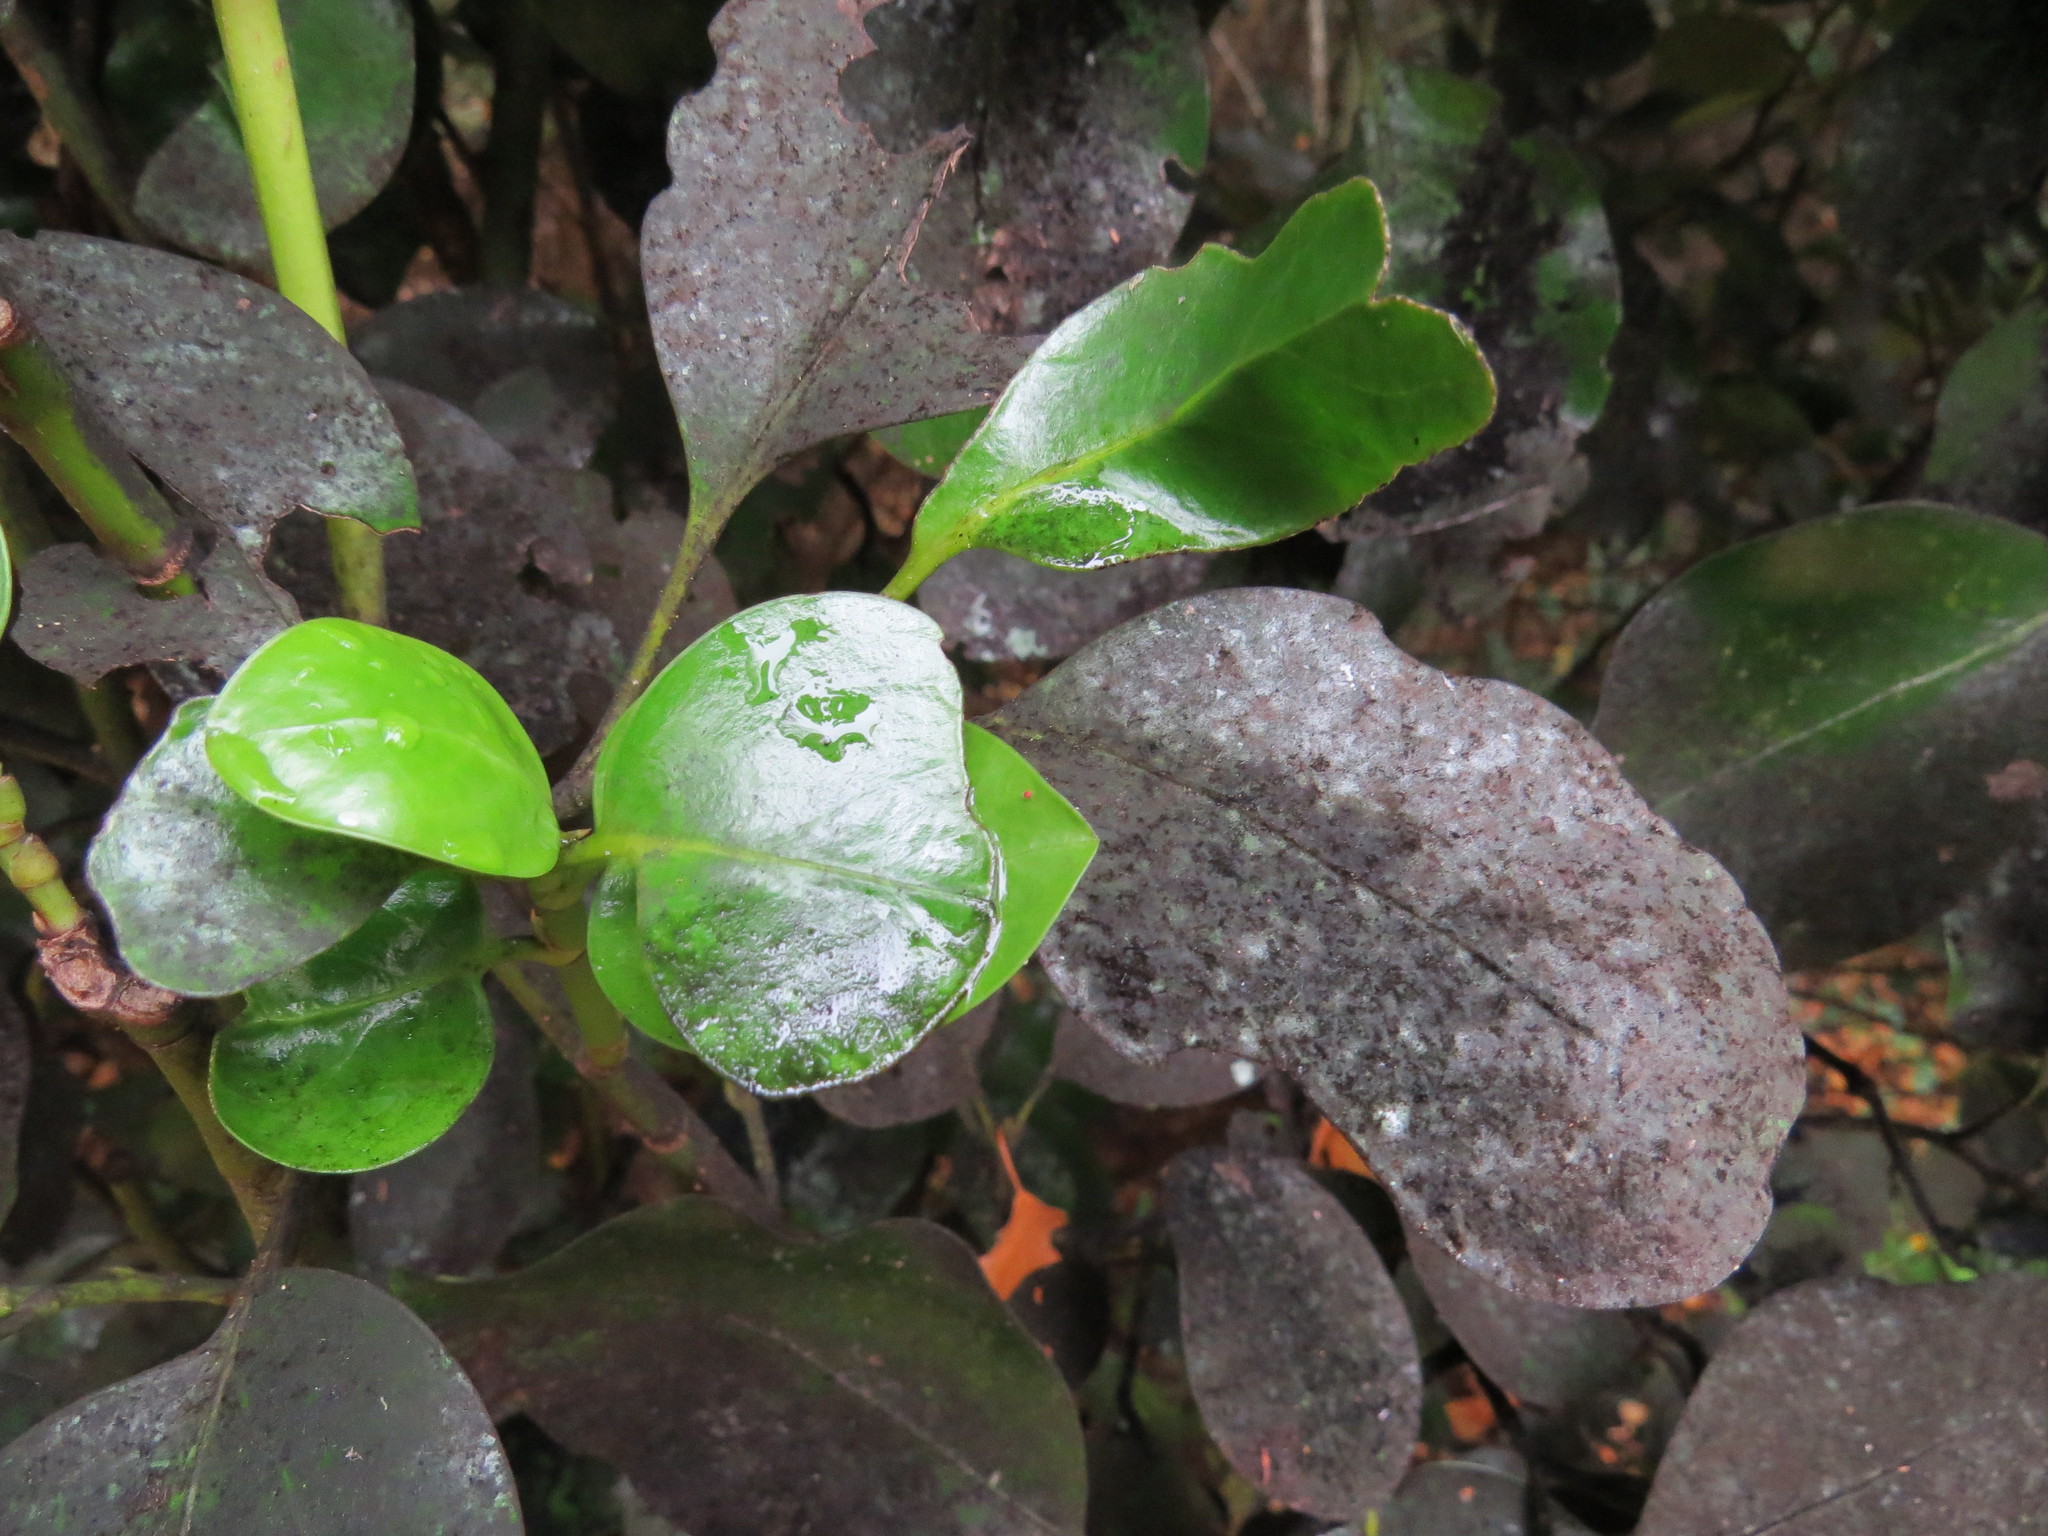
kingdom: Plantae
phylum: Tracheophyta
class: Magnoliopsida
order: Apiales
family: Griseliniaceae
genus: Griselinia
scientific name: Griselinia littoralis
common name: New zealand broadleaf
